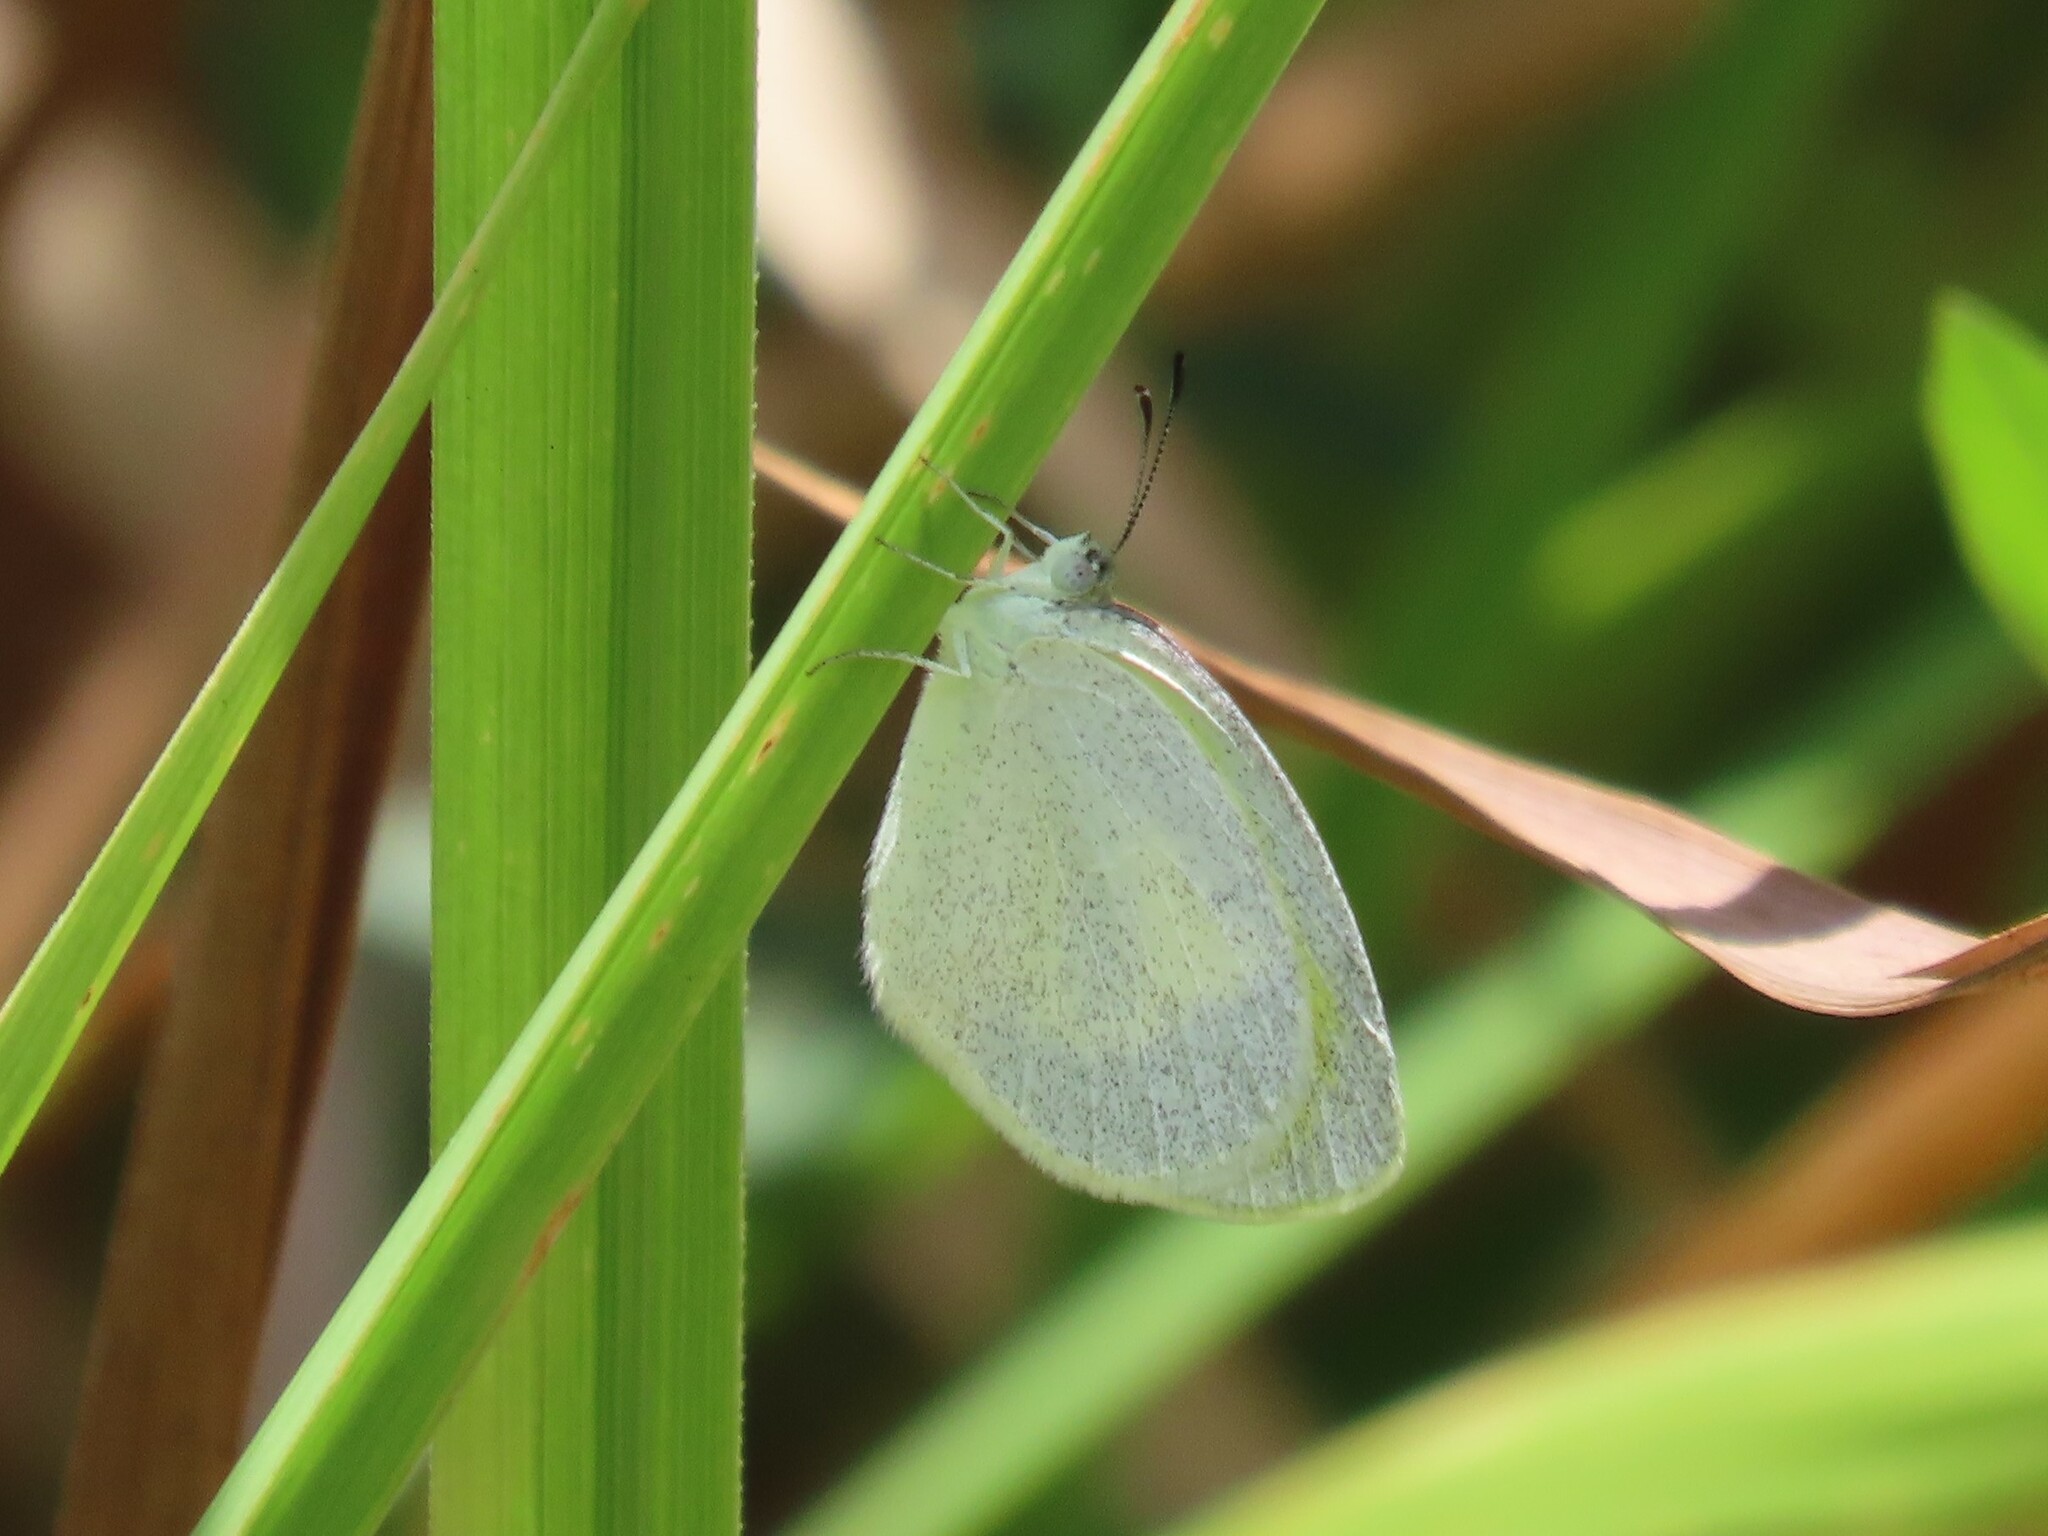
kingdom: Animalia
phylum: Arthropoda
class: Insecta
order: Lepidoptera
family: Pieridae
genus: Eurema
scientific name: Eurema daira
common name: Barred sulphur
